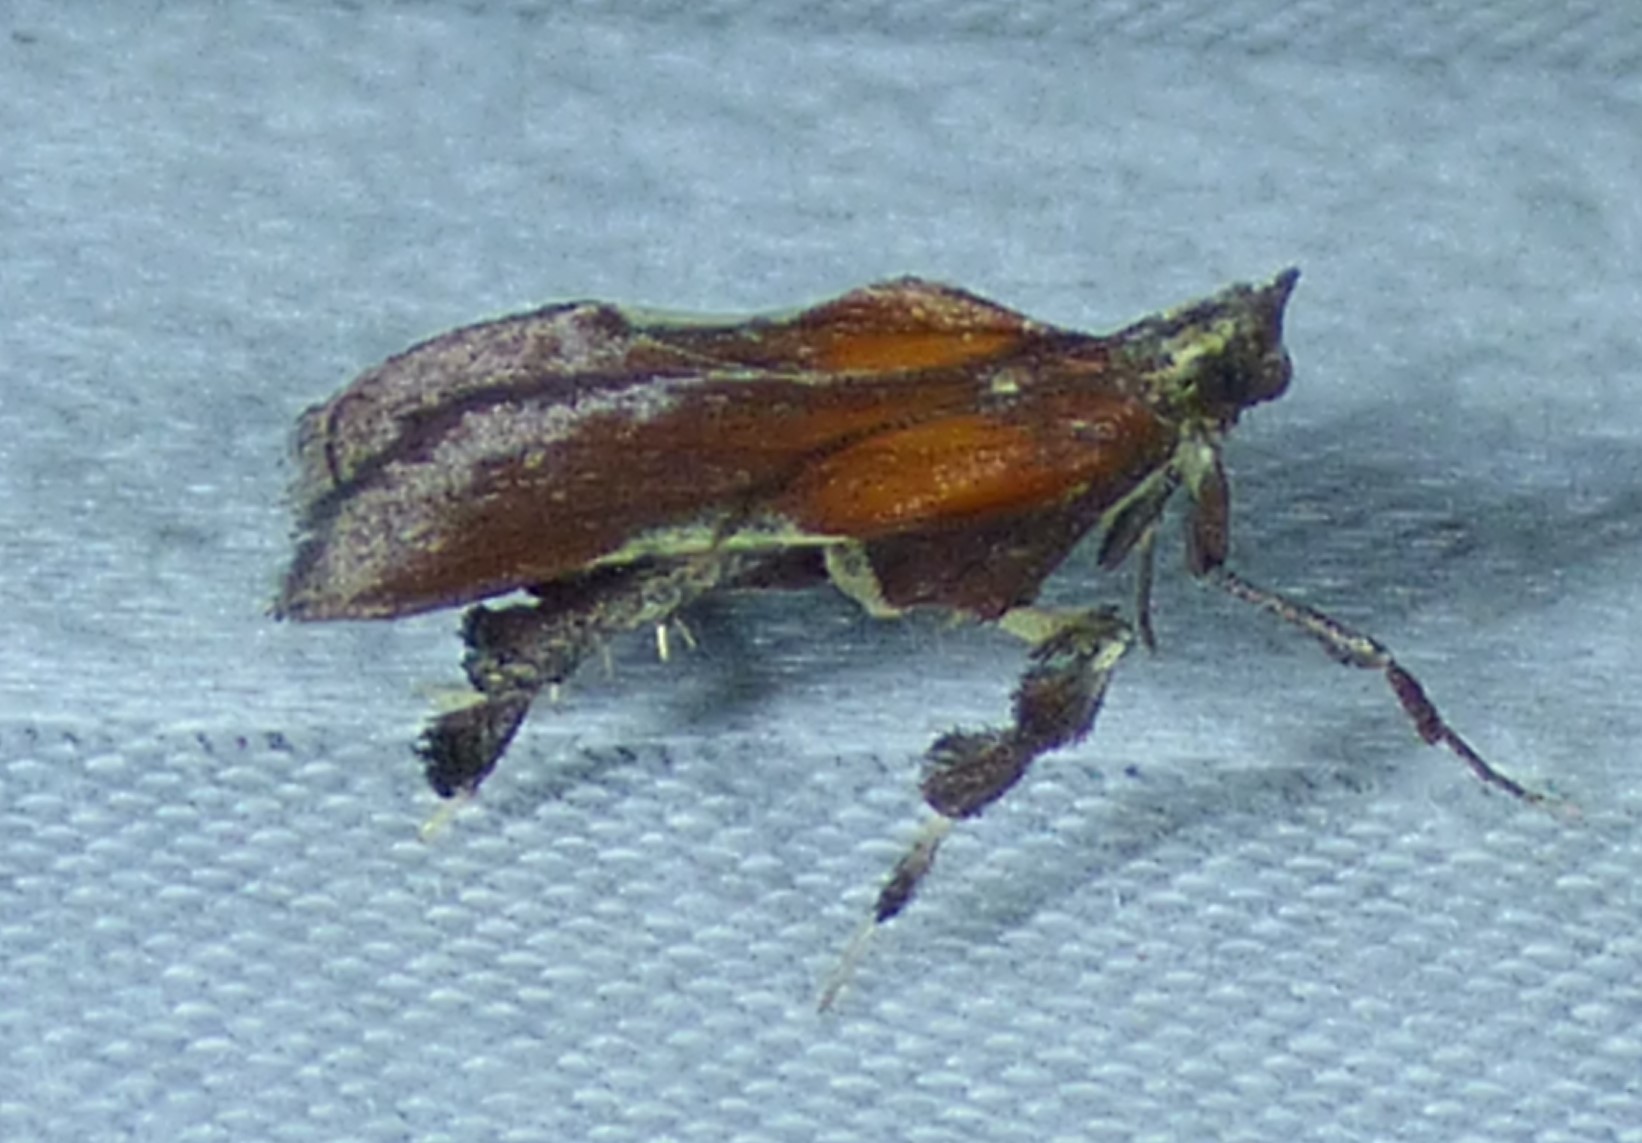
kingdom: Animalia
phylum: Arthropoda
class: Insecta
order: Lepidoptera
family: Pyralidae
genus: Galasa
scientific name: Galasa nigrinodis
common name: Boxwood leaftier moth
